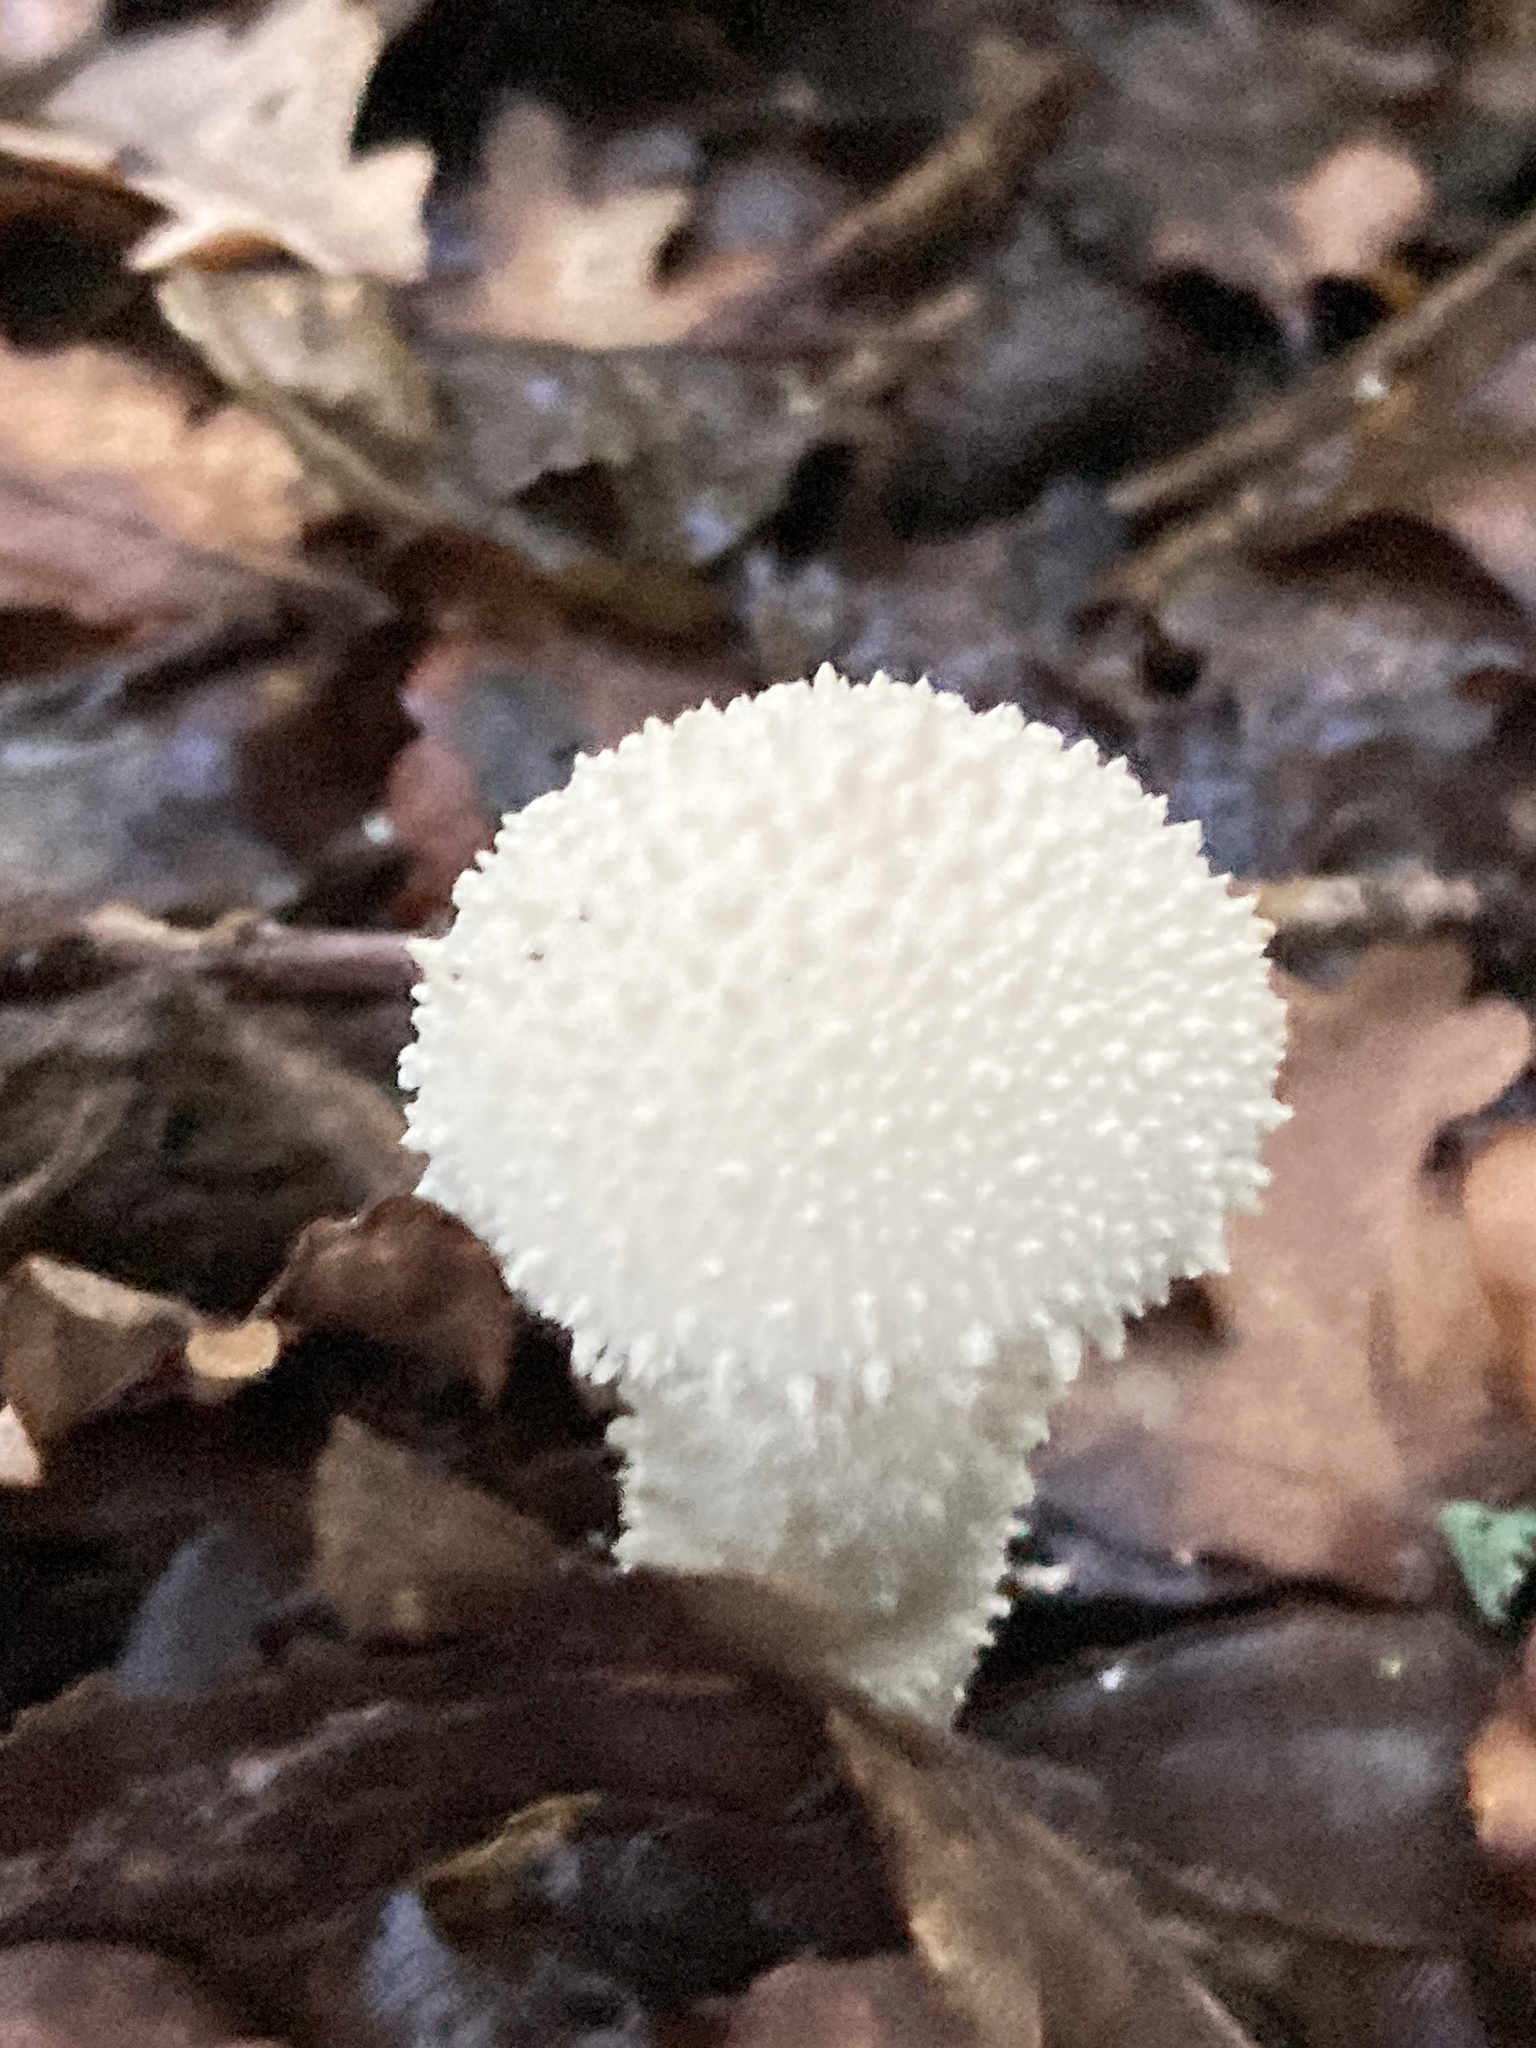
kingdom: Fungi
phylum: Basidiomycota
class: Agaricomycetes
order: Agaricales
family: Lycoperdaceae
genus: Lycoperdon
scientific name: Lycoperdon perlatum
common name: Common puffball
